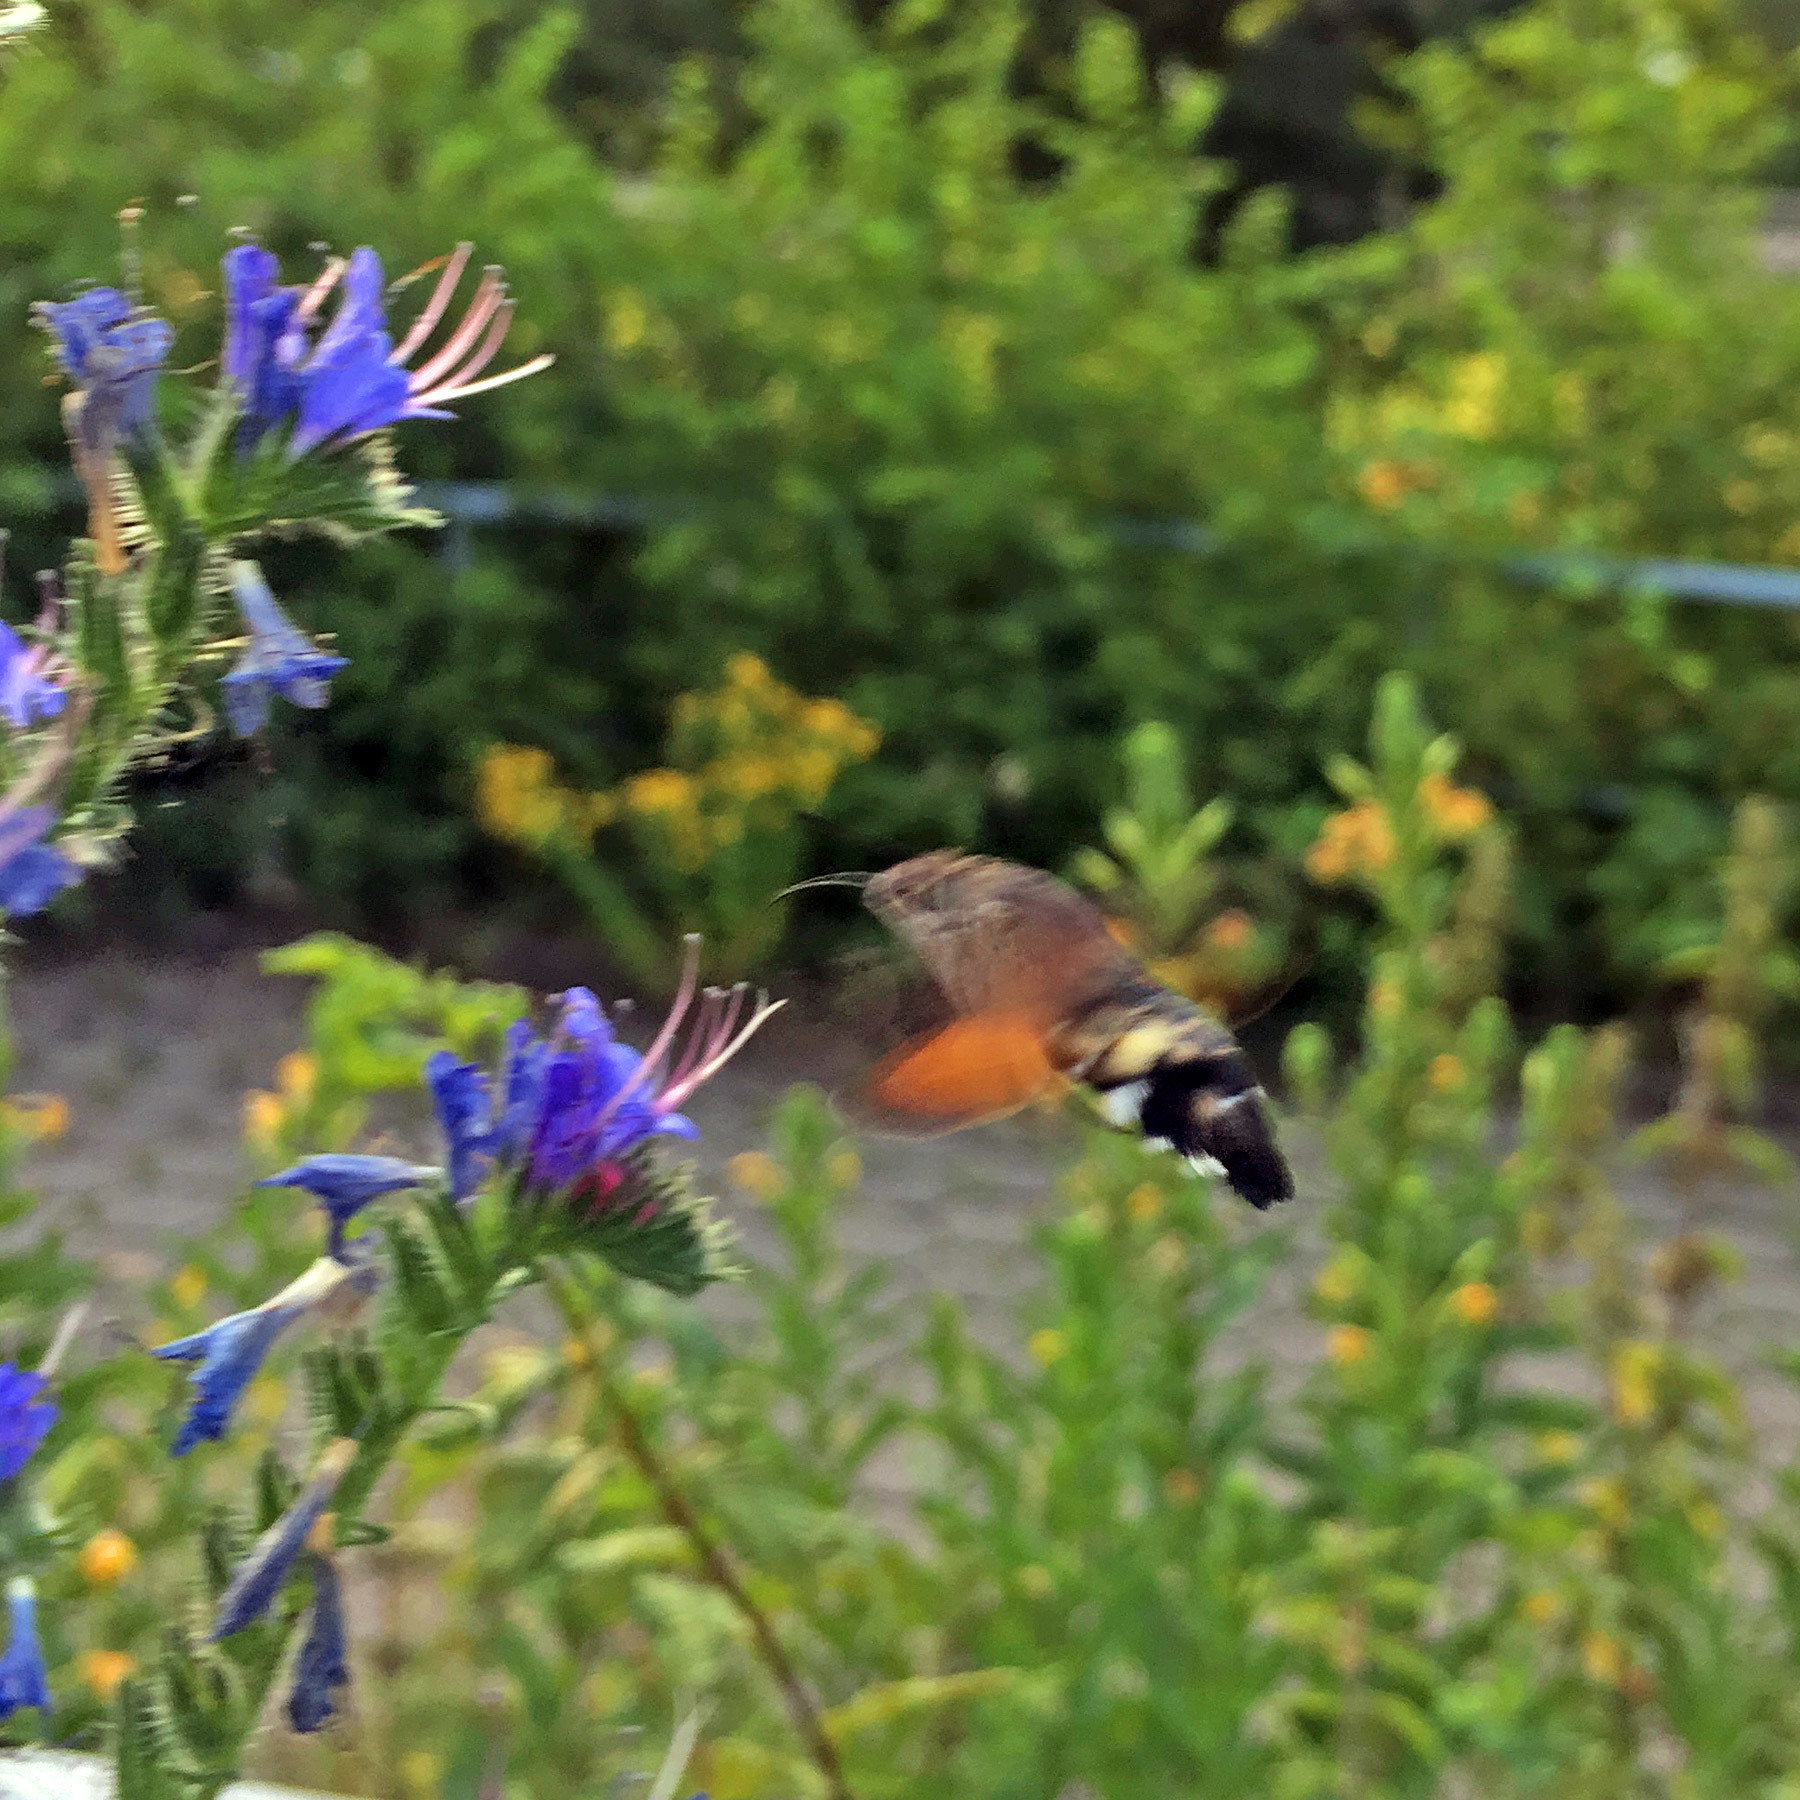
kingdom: Animalia
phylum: Arthropoda
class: Insecta
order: Lepidoptera
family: Sphingidae
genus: Macroglossum
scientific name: Macroglossum stellatarum
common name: Humming-bird hawk-moth
